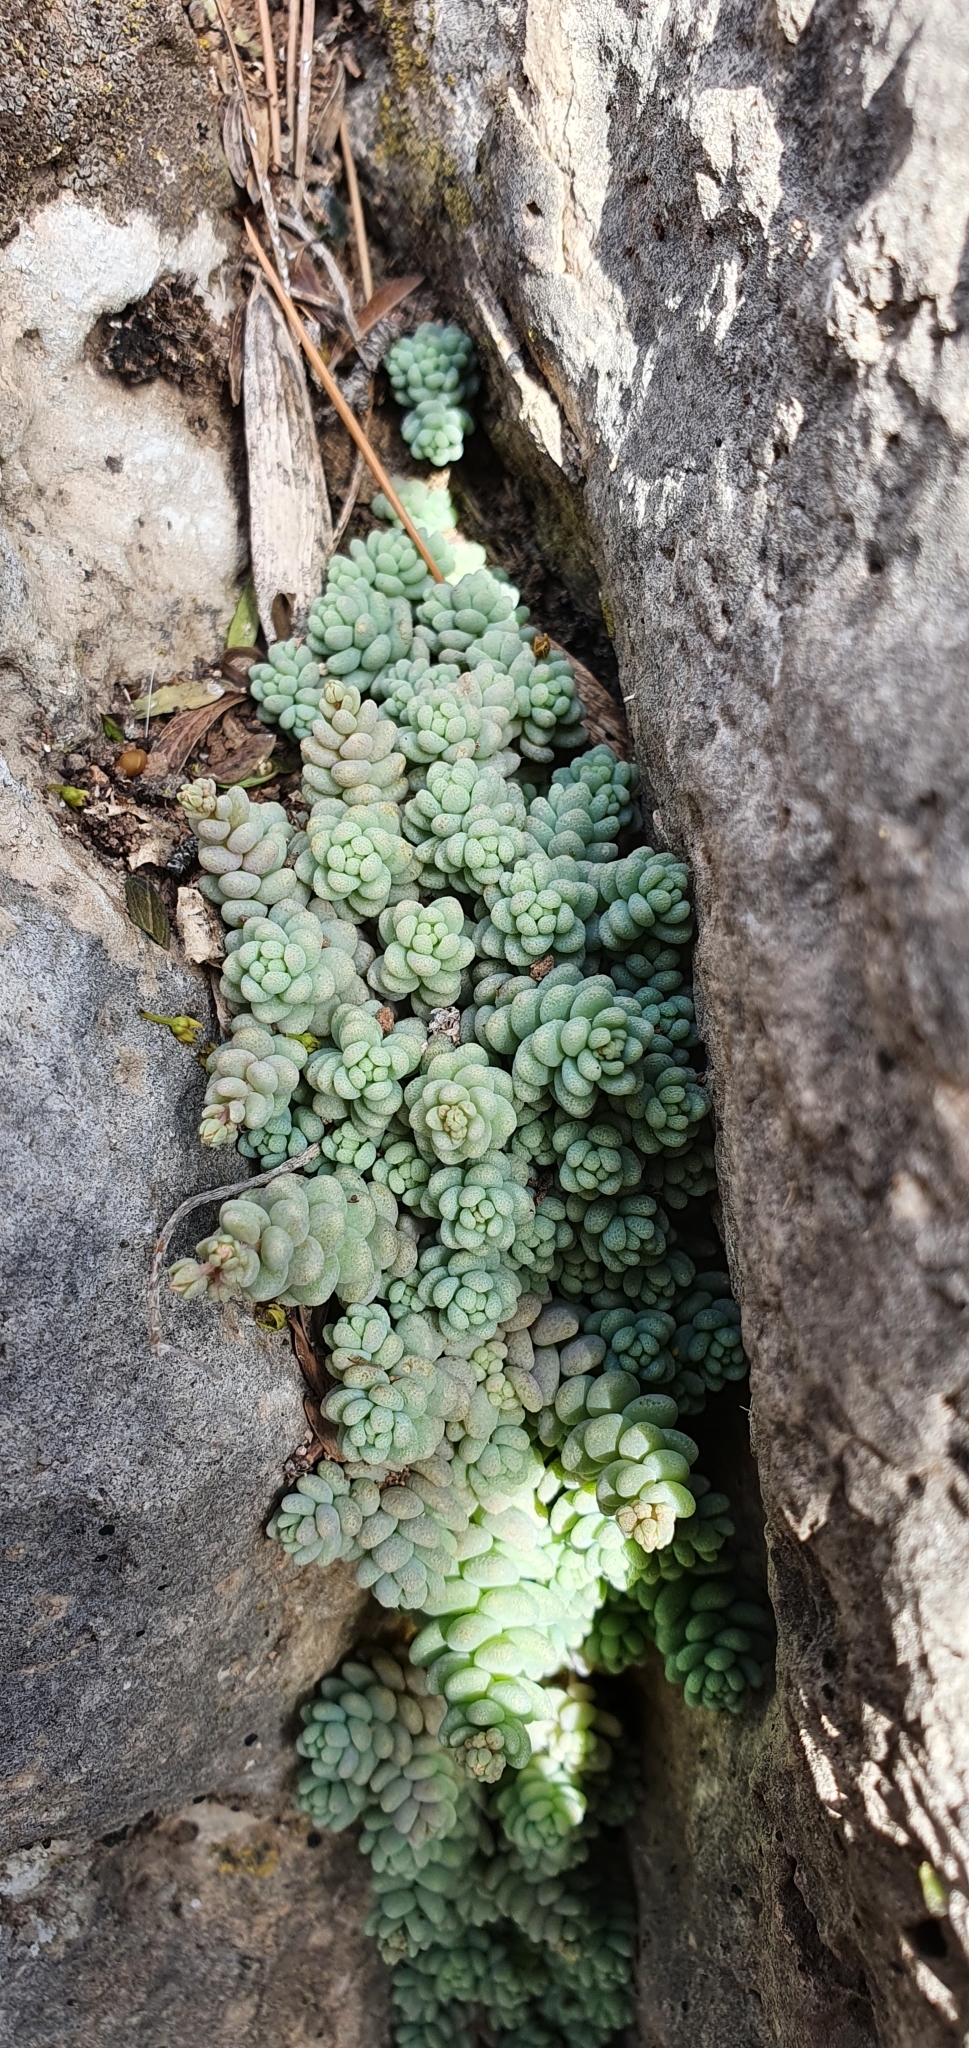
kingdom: Plantae
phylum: Tracheophyta
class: Magnoliopsida
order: Saxifragales
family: Crassulaceae
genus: Sedum
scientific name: Sedum dasyphyllum
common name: Thick-leaf stonecrop
